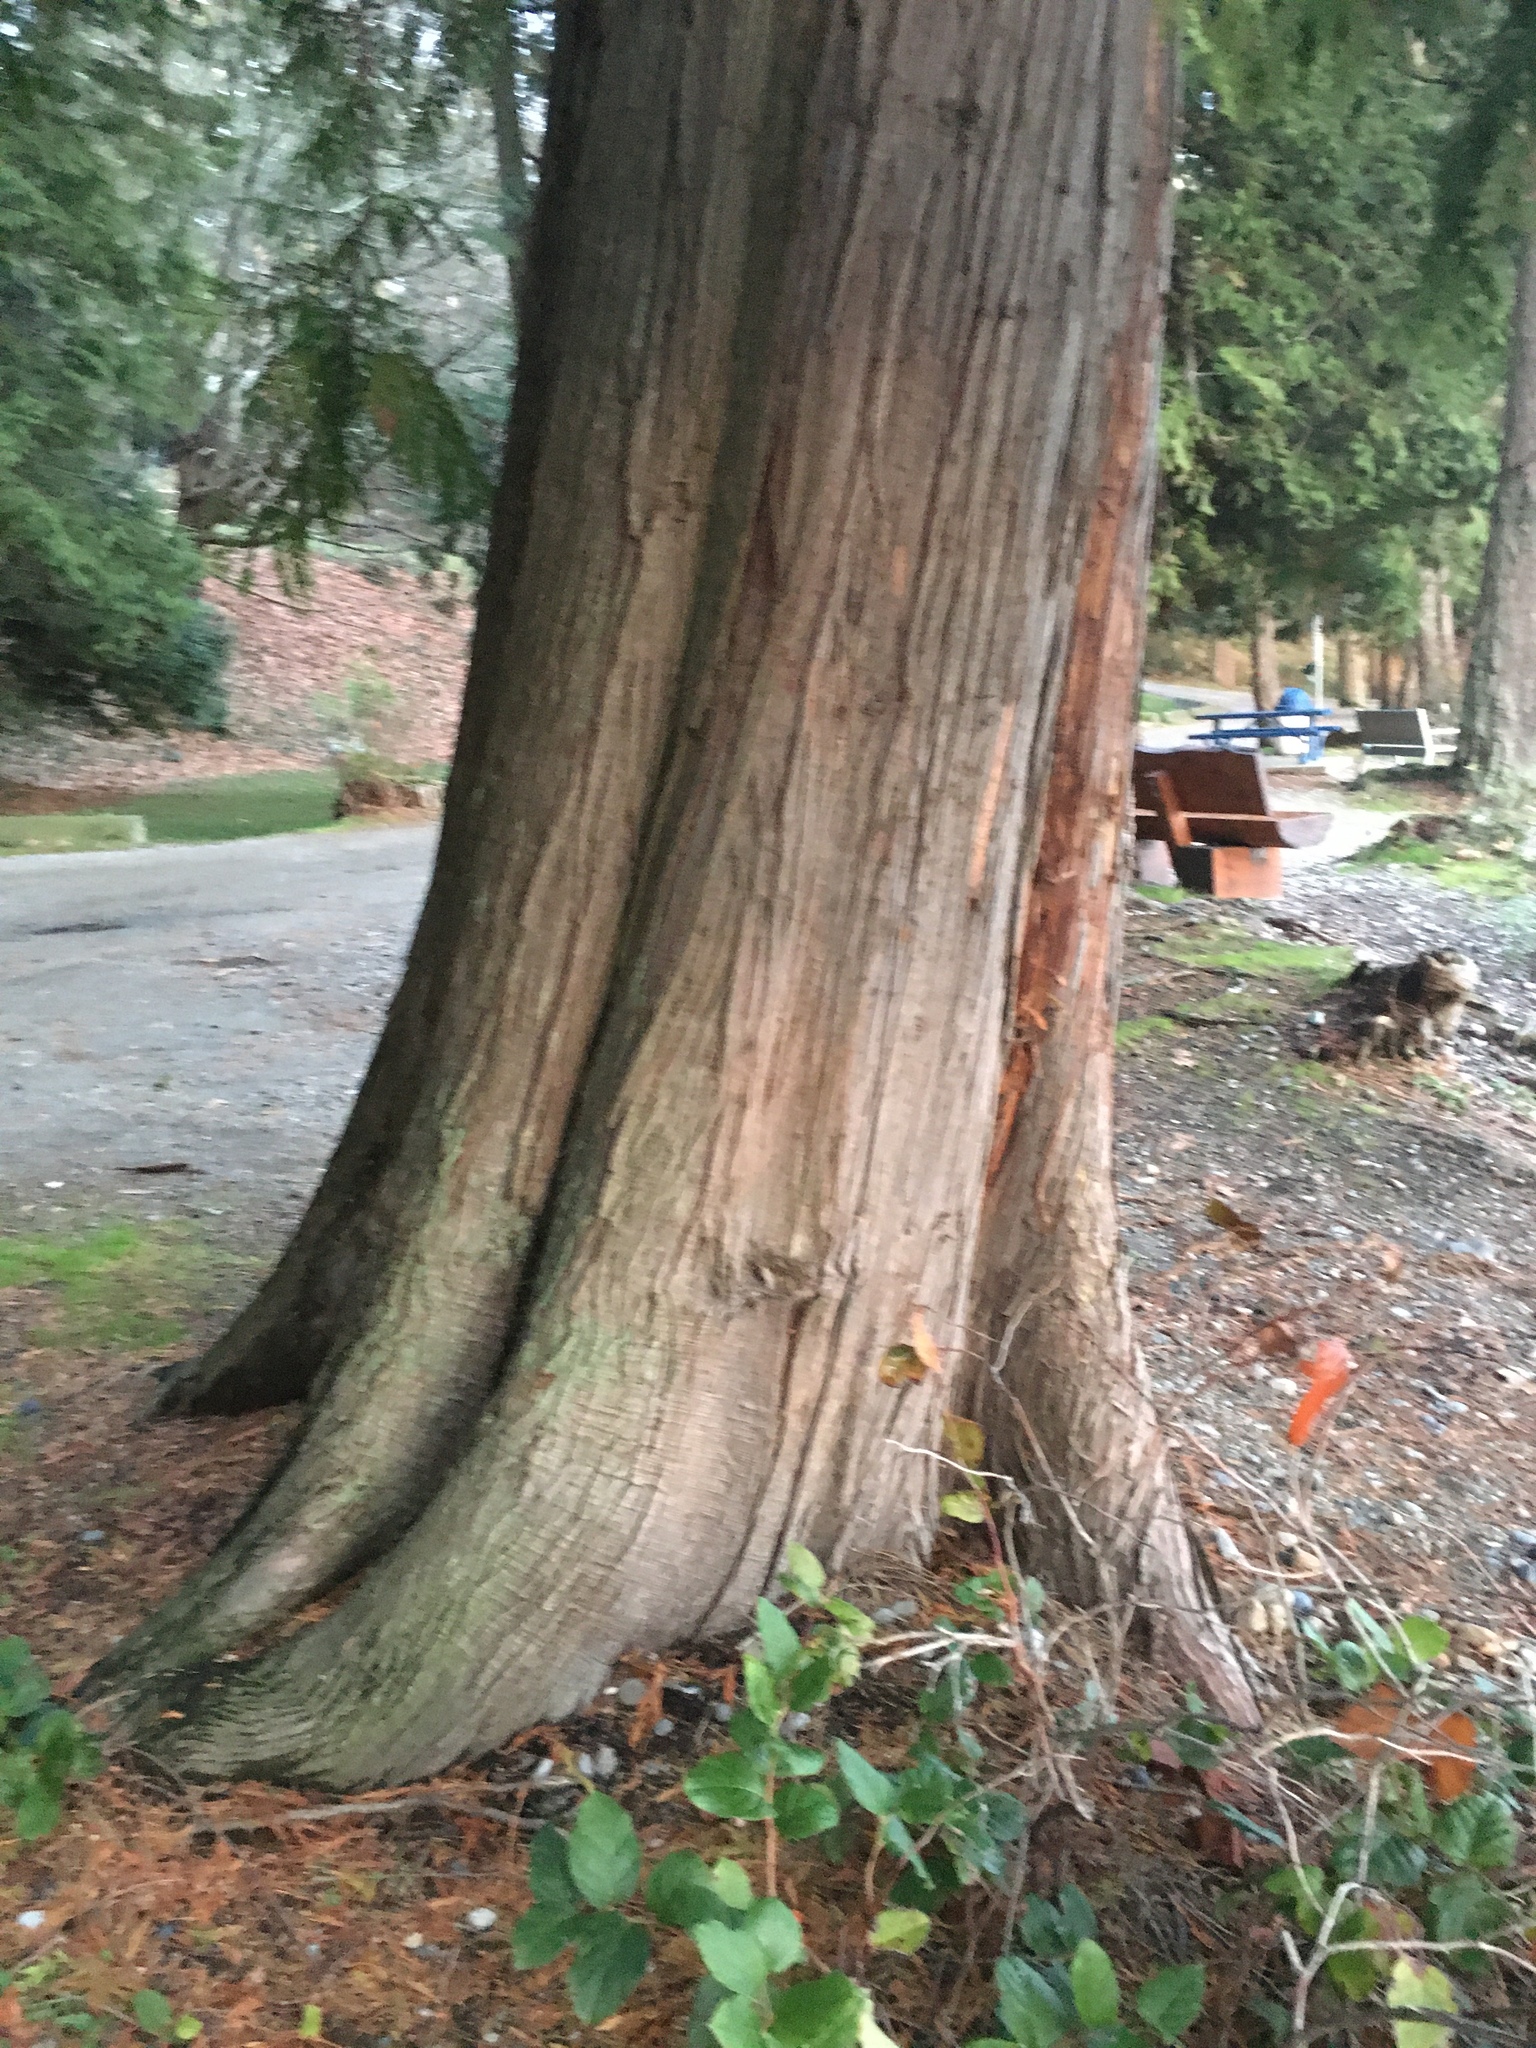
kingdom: Plantae
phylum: Tracheophyta
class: Pinopsida
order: Pinales
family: Cupressaceae
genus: Thuja
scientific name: Thuja plicata
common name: Western red-cedar
